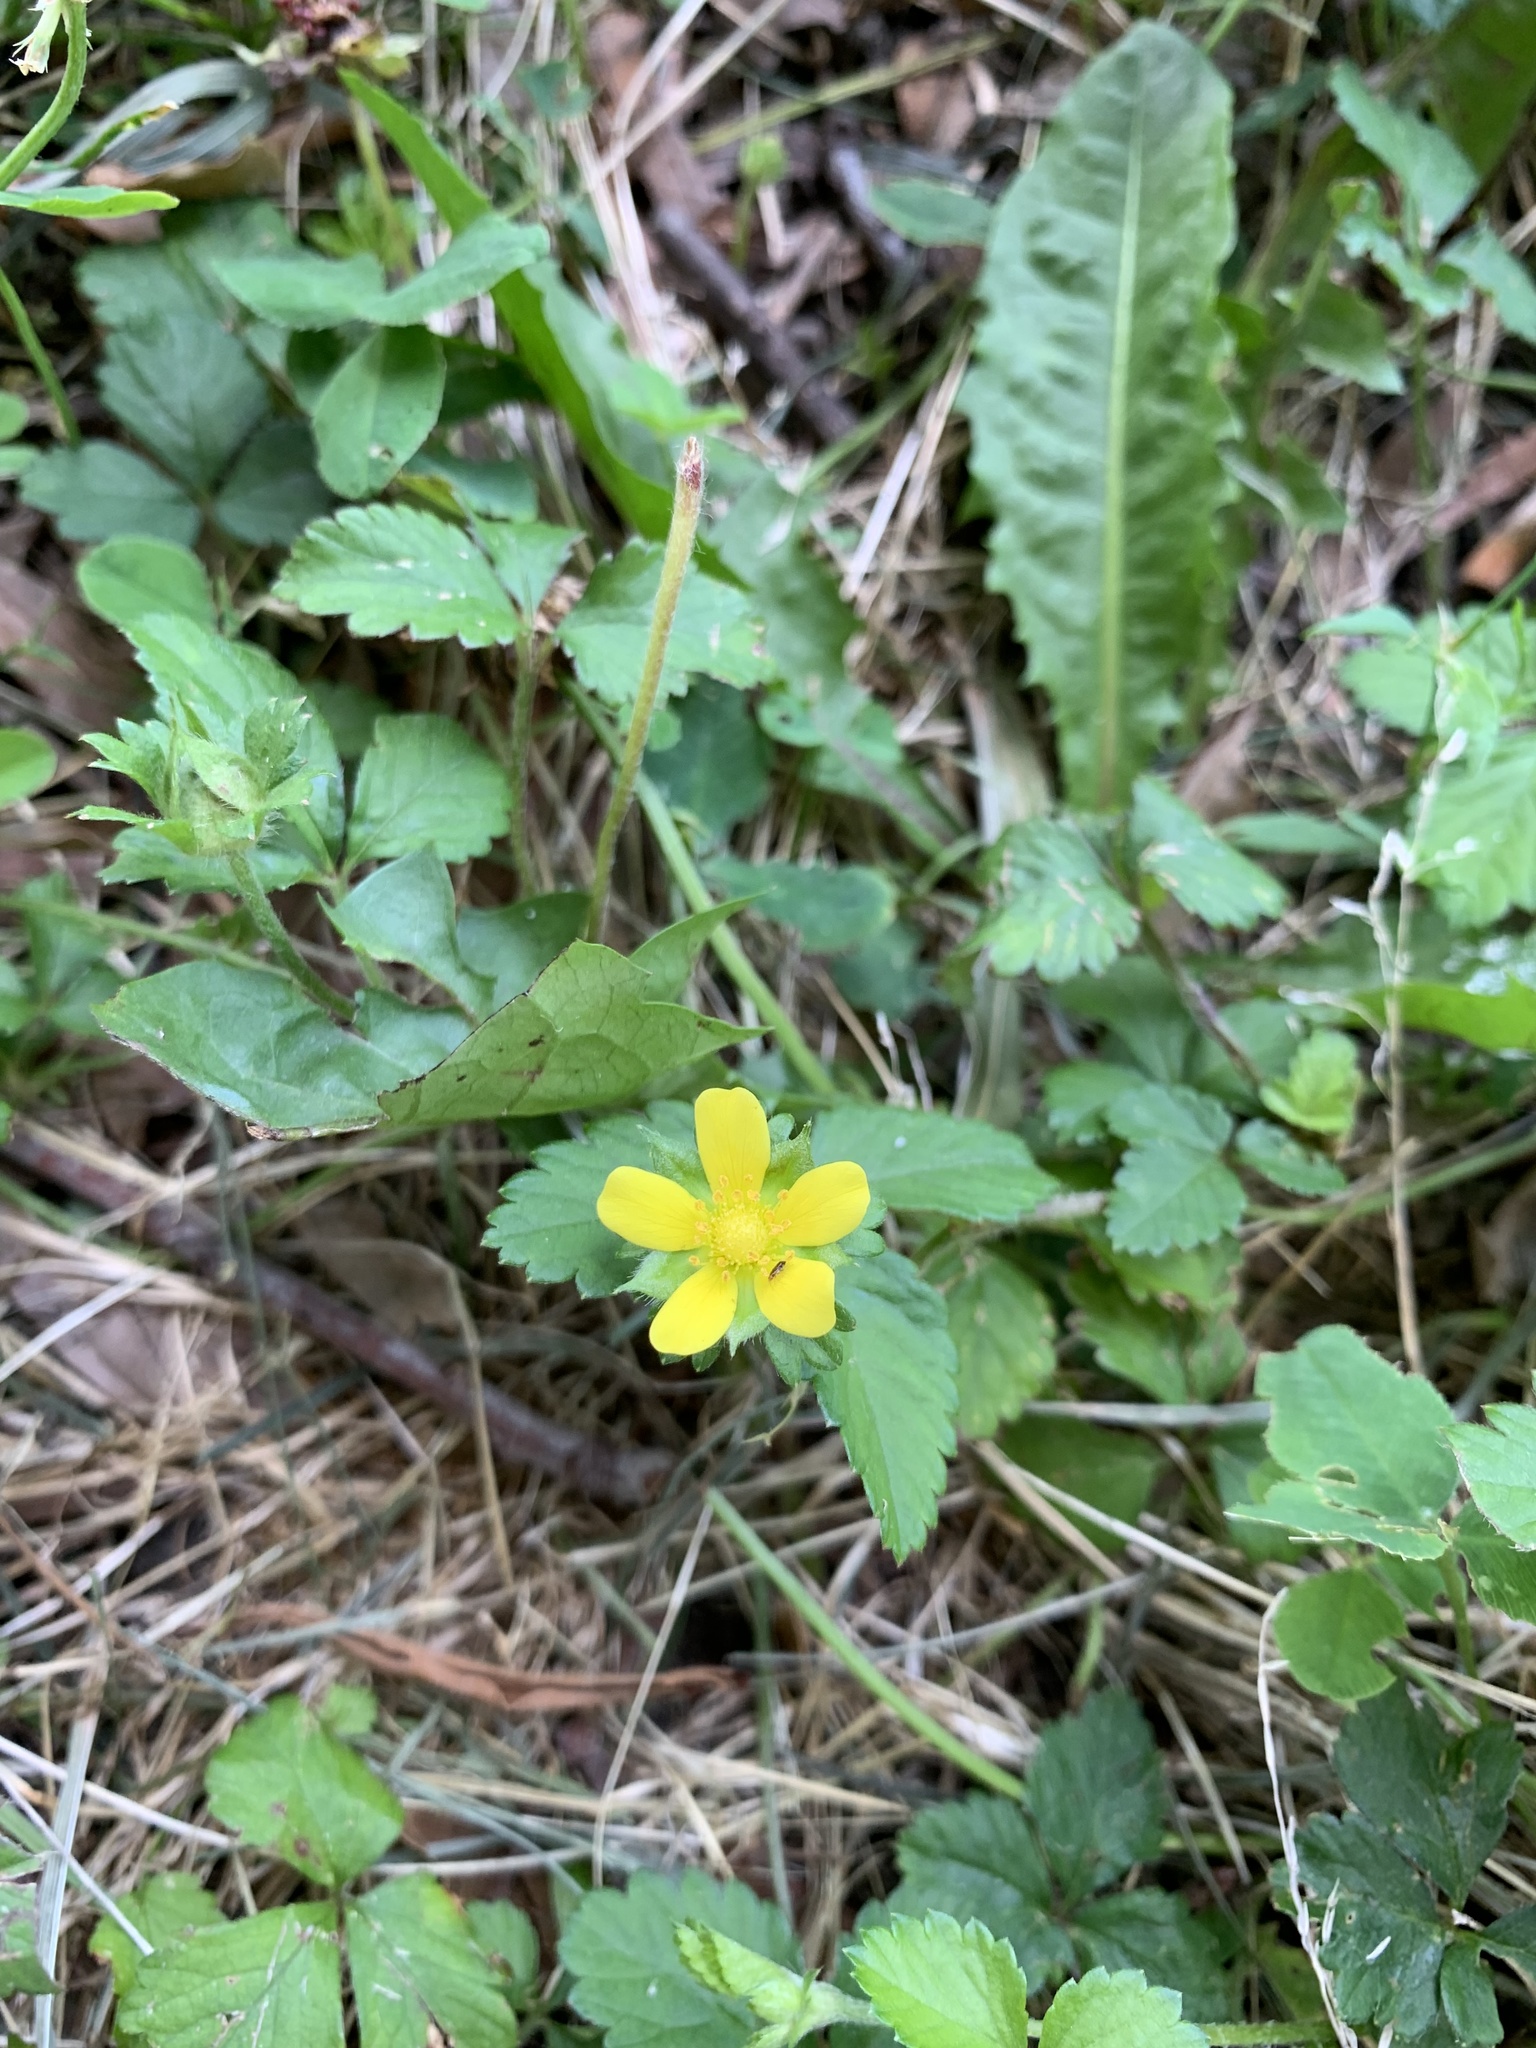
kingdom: Plantae
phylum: Tracheophyta
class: Magnoliopsida
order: Rosales
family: Rosaceae
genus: Potentilla
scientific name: Potentilla indica
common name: Yellow-flowered strawberry
